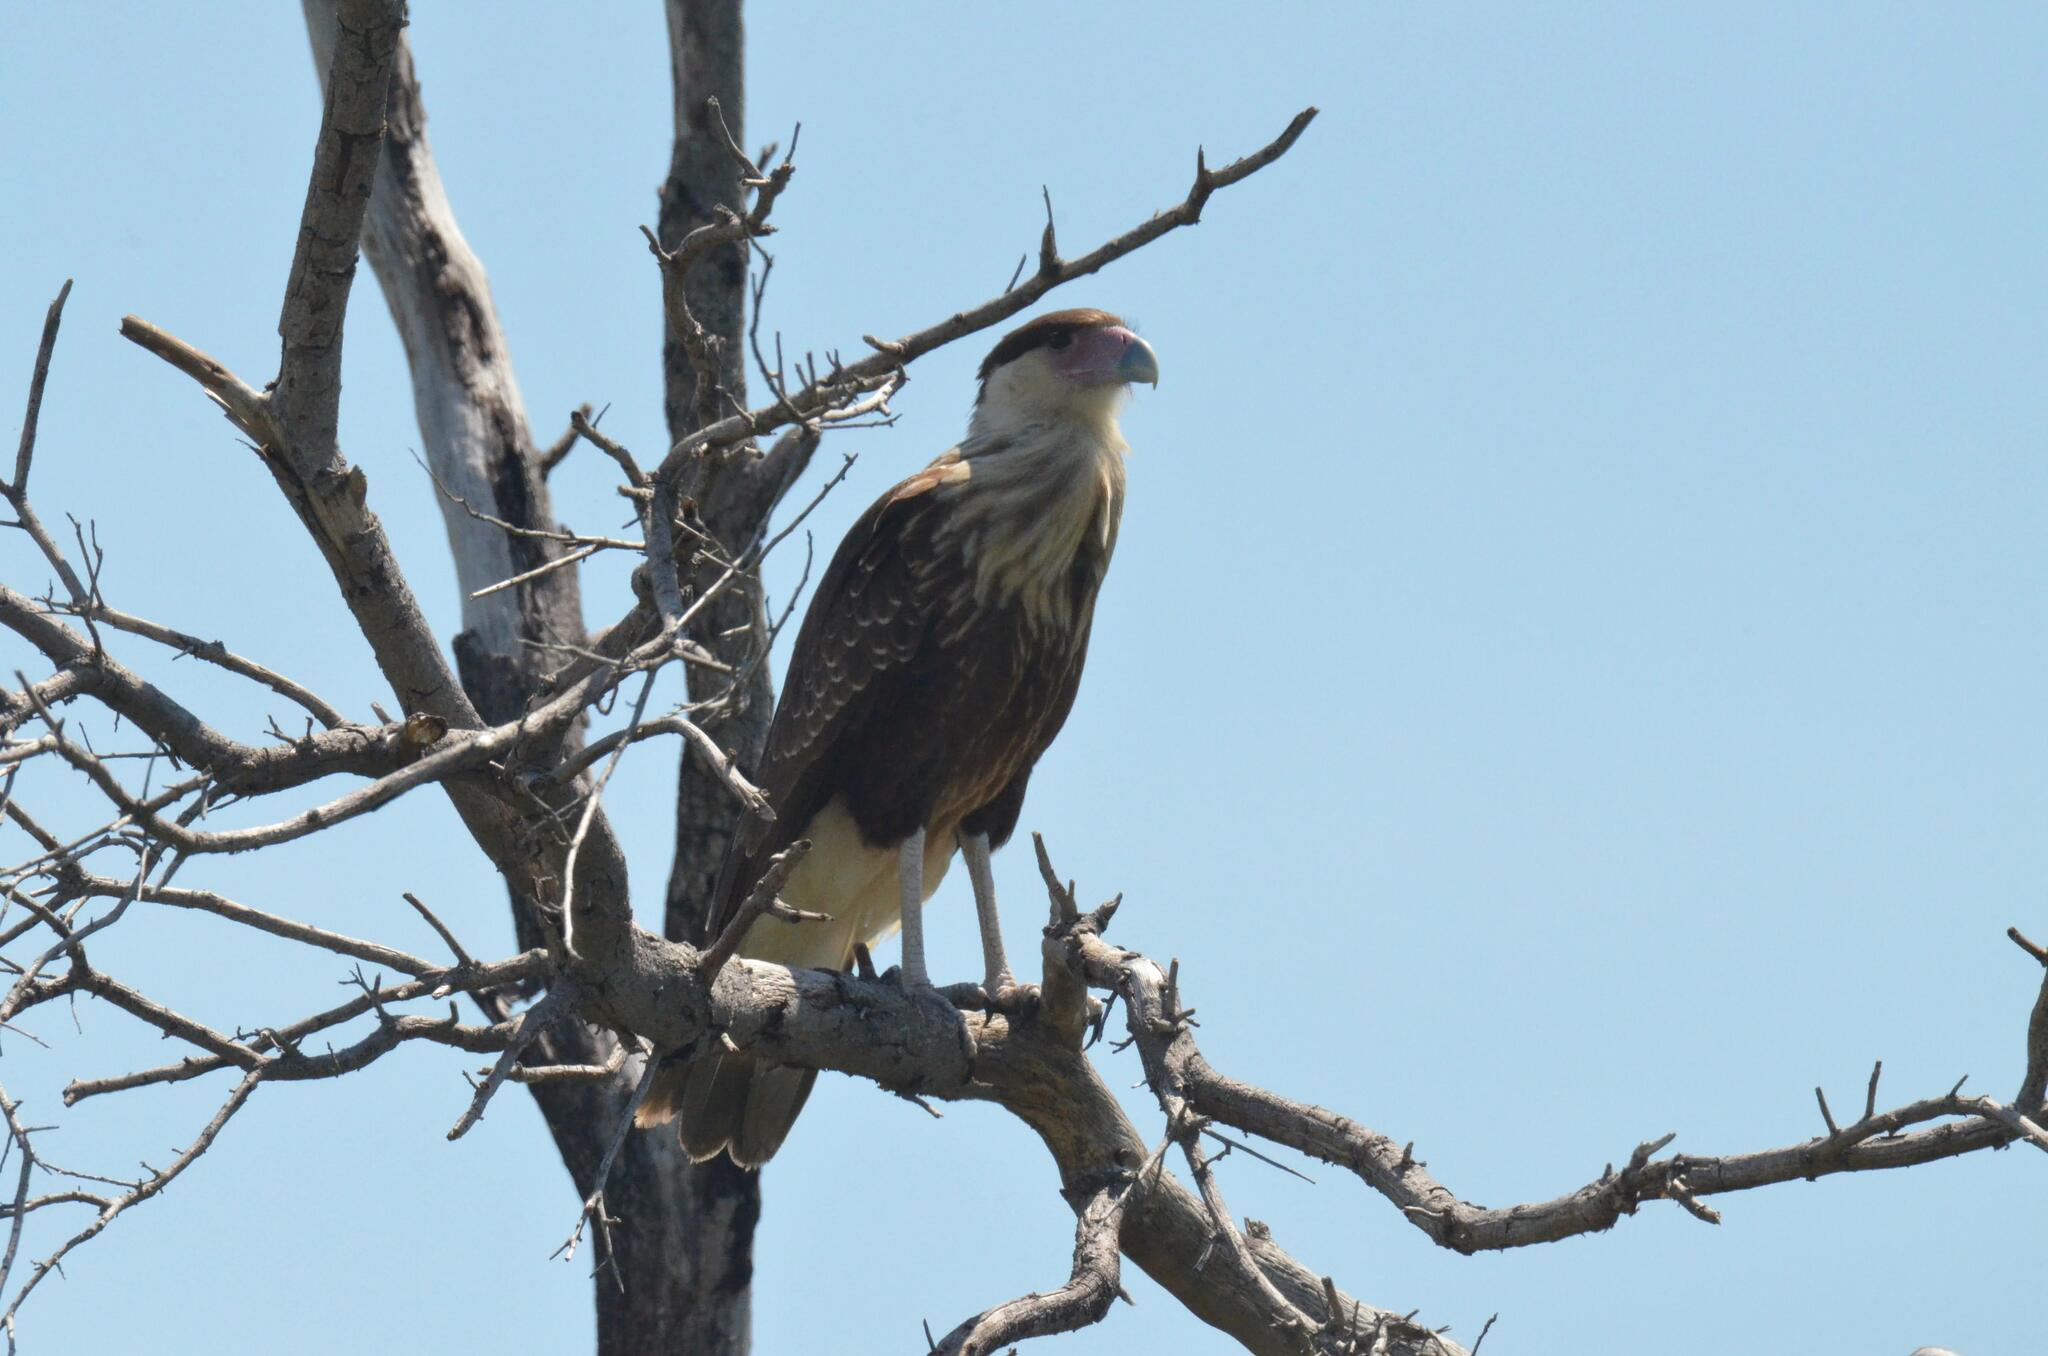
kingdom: Animalia
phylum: Chordata
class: Aves
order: Falconiformes
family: Falconidae
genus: Caracara
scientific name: Caracara plancus
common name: Southern caracara
